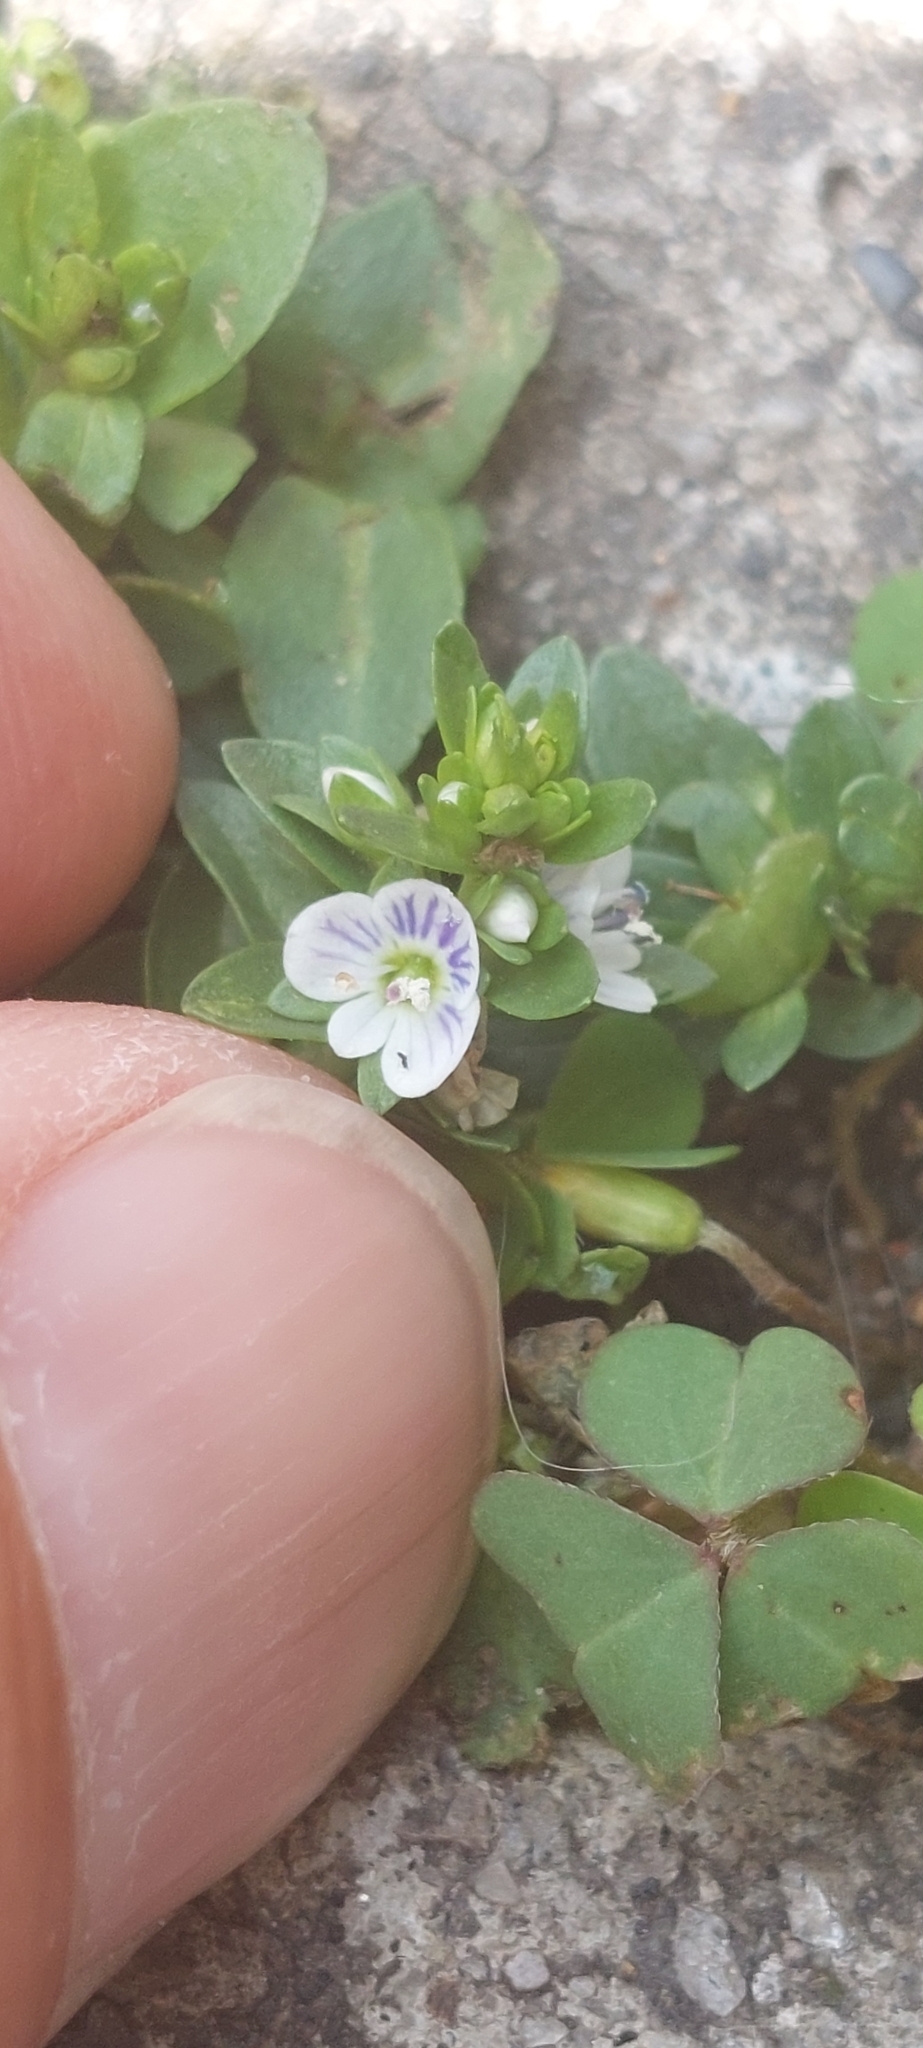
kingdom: Plantae
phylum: Tracheophyta
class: Magnoliopsida
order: Lamiales
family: Plantaginaceae
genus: Veronica
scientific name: Veronica serpyllifolia
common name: Thyme-leaved speedwell
